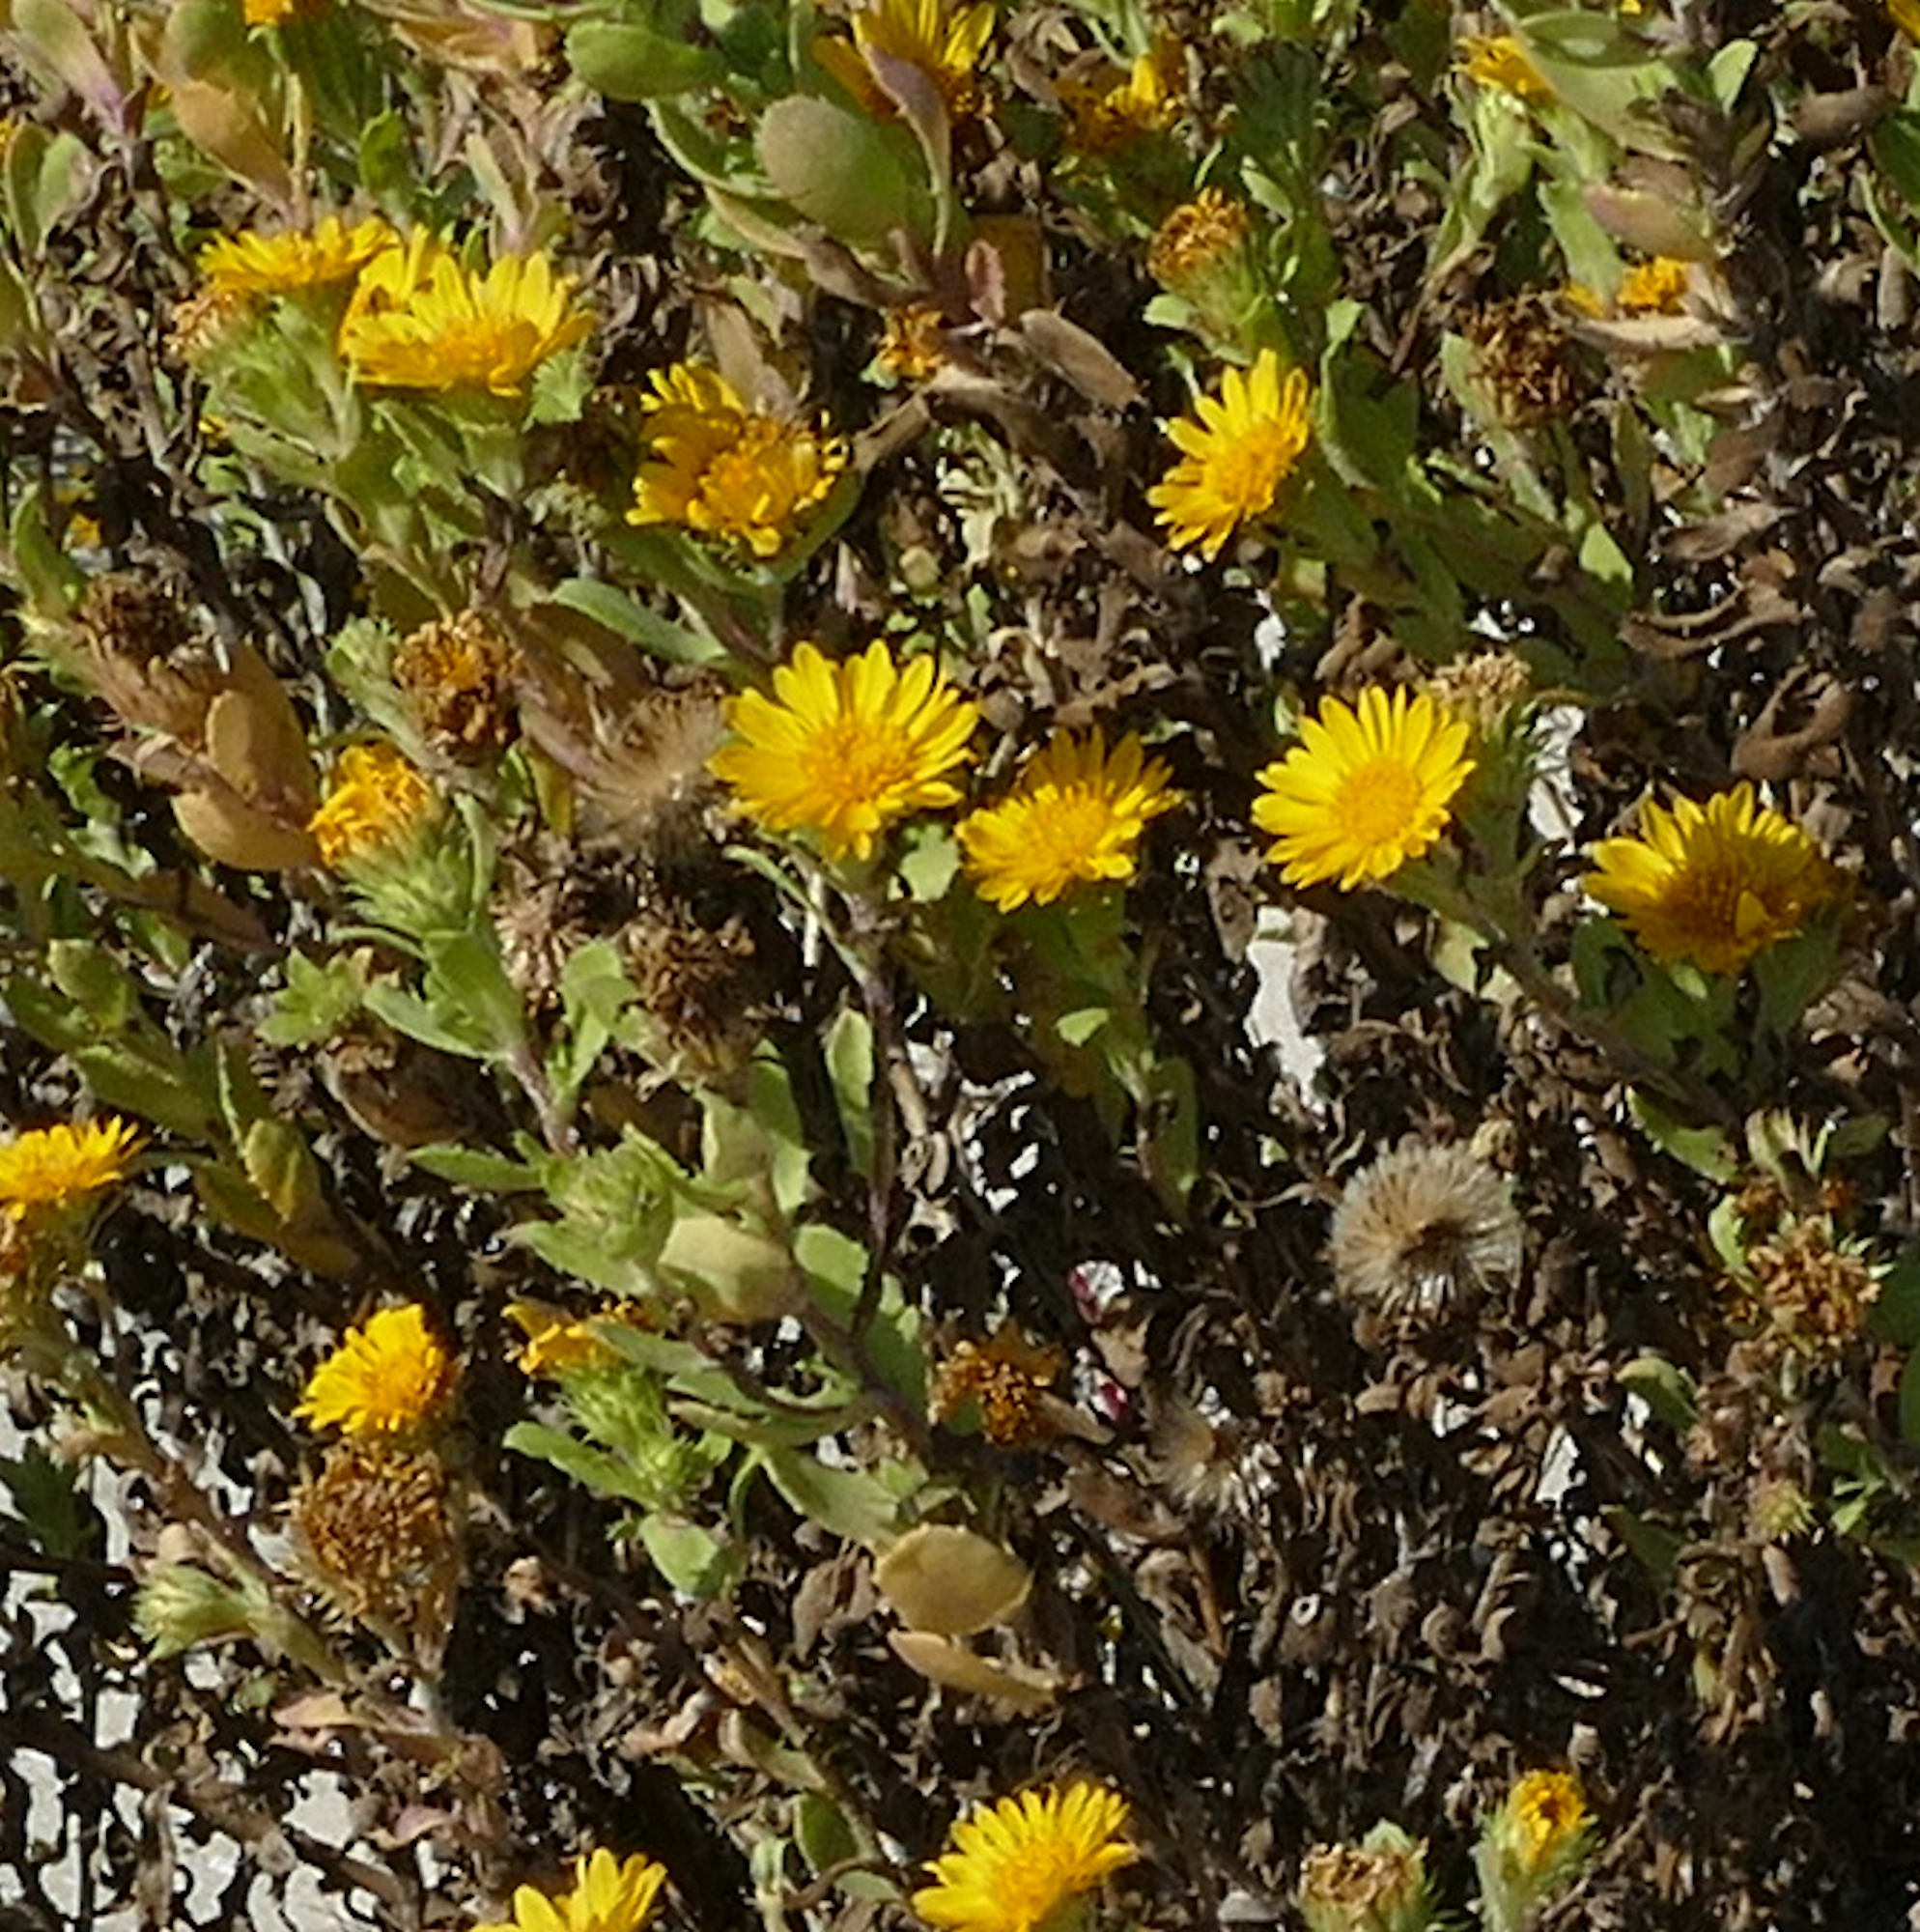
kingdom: Plantae
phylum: Tracheophyta
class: Magnoliopsida
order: Asterales
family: Asteraceae
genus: Rayjacksonia
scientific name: Rayjacksonia phyllocephala
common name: Gulf coast camphor daisy
